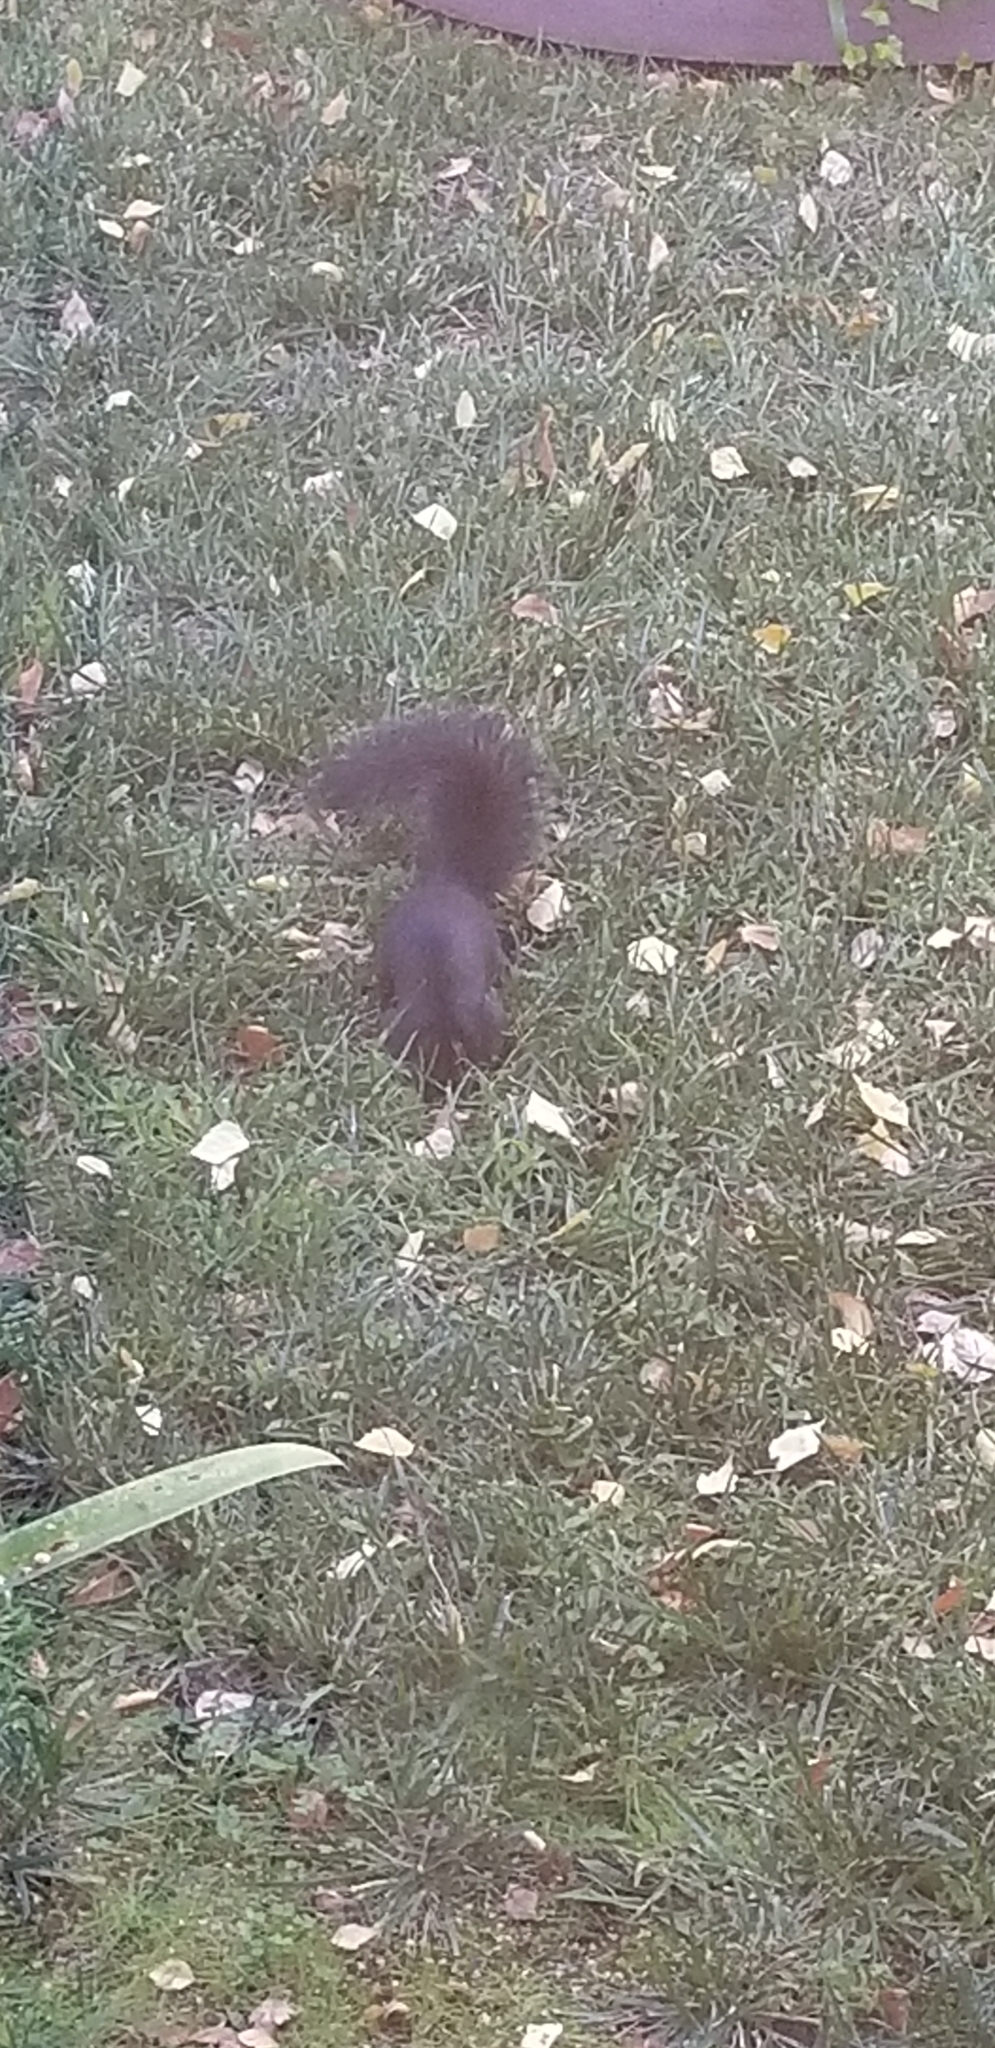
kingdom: Animalia
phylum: Chordata
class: Mammalia
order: Rodentia
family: Sciuridae
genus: Sciurus
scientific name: Sciurus carolinensis
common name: Eastern gray squirrel
